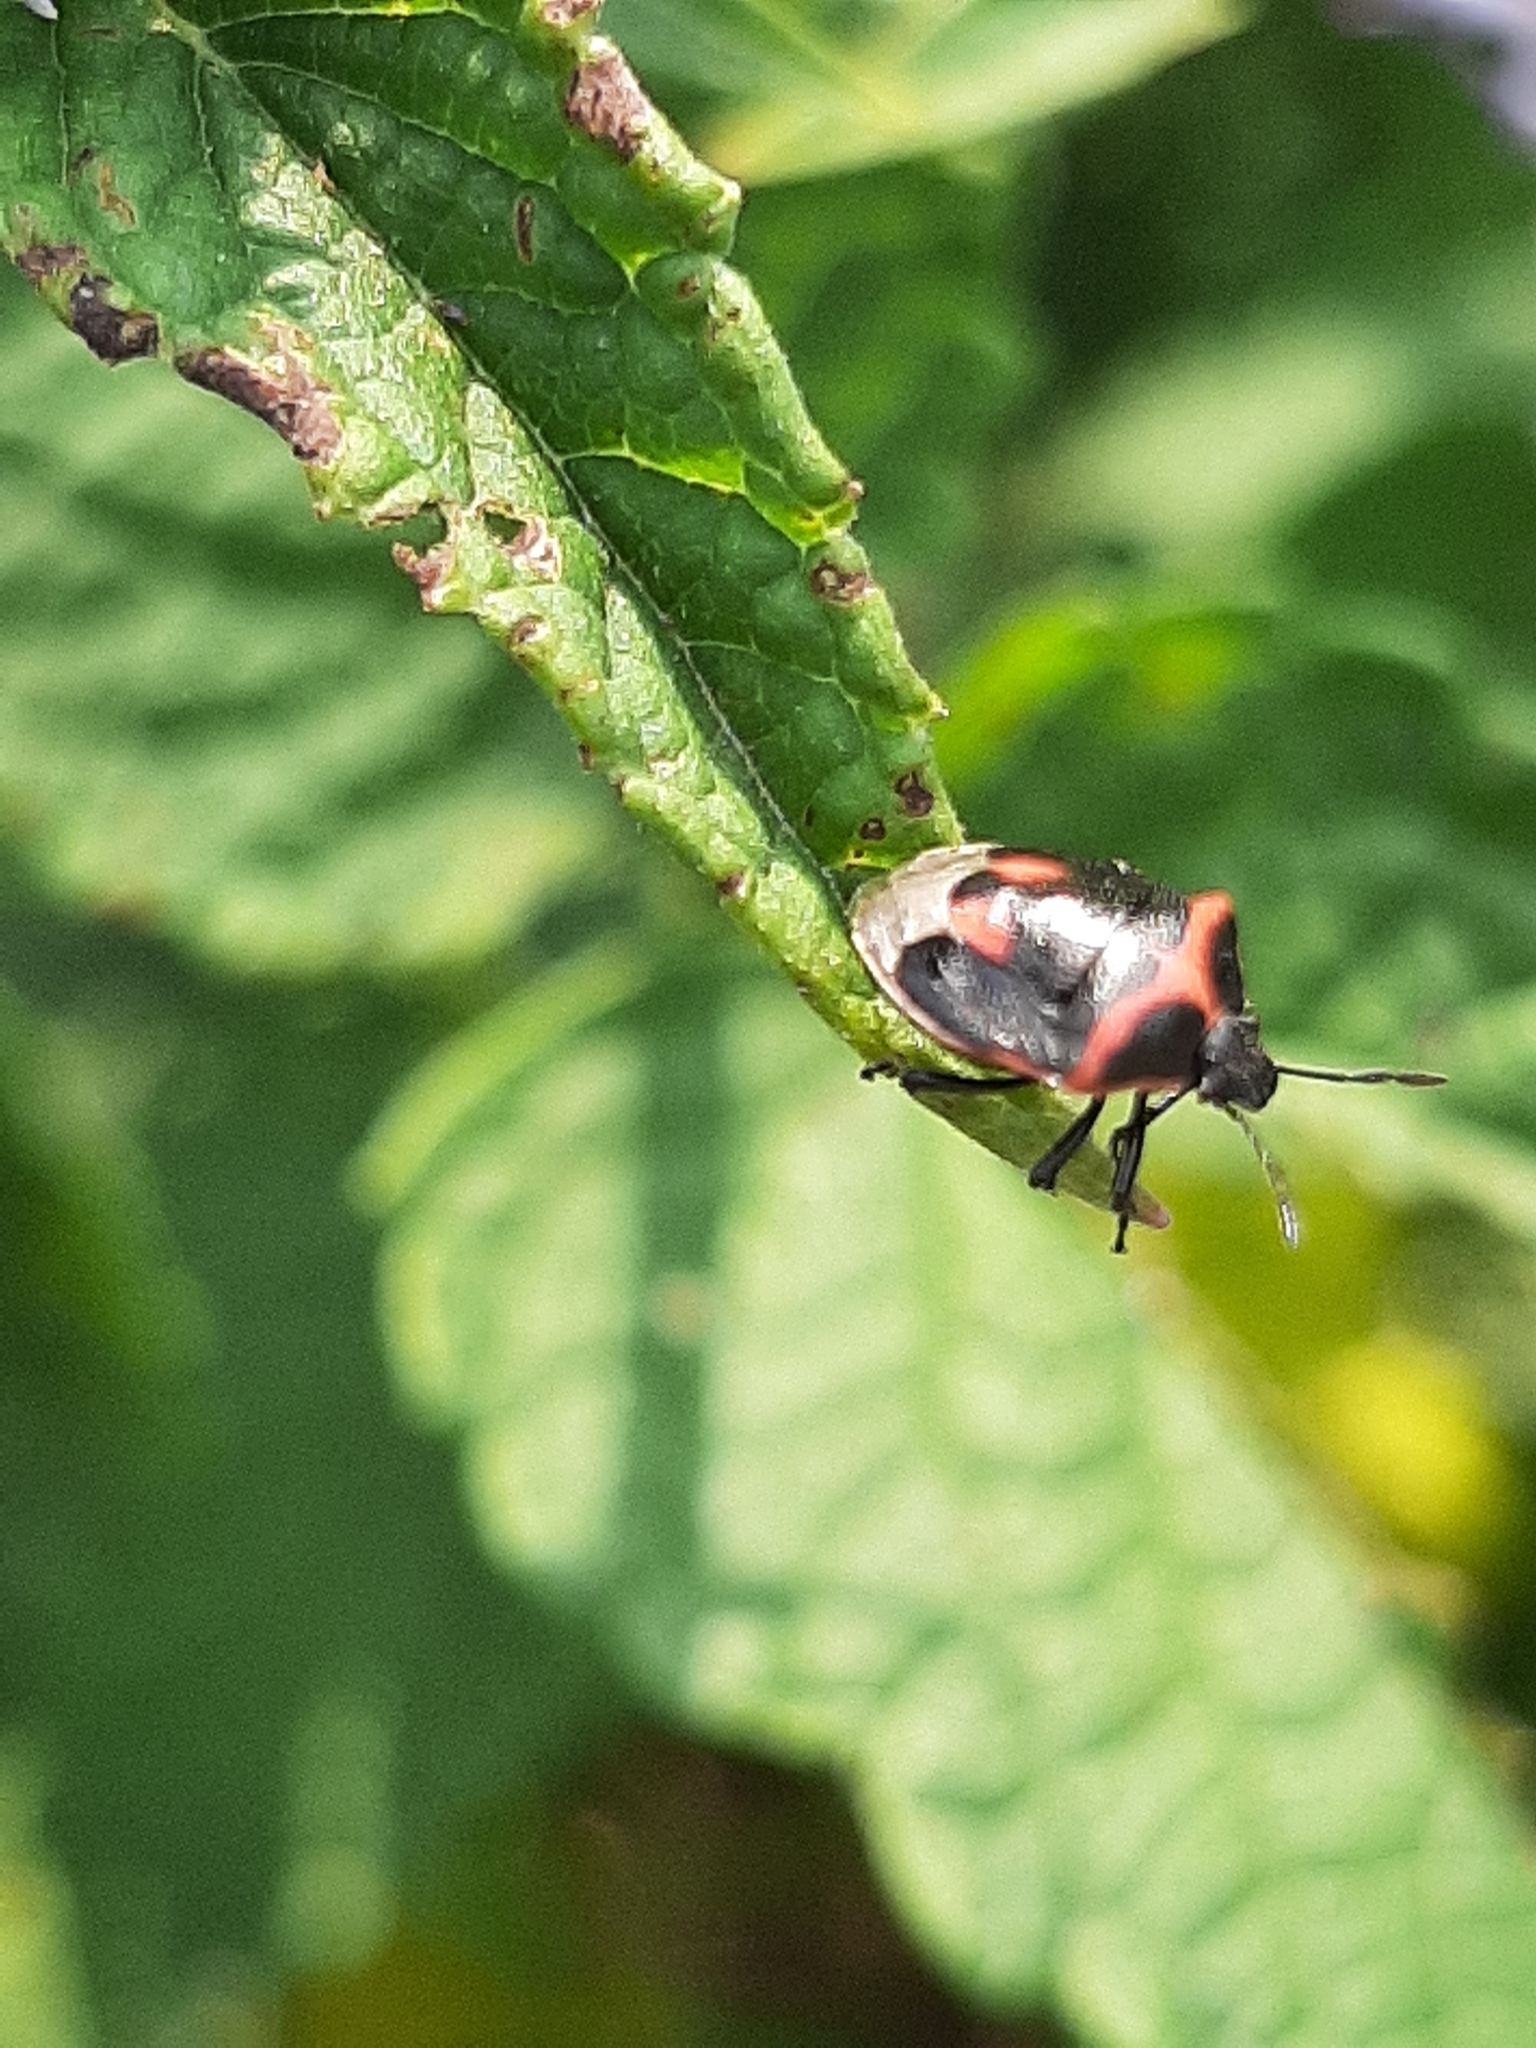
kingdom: Animalia
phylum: Arthropoda
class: Insecta
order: Hemiptera
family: Pentatomidae
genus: Cosmopepla
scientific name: Cosmopepla lintneriana
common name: Twice-stabbed stink bug
